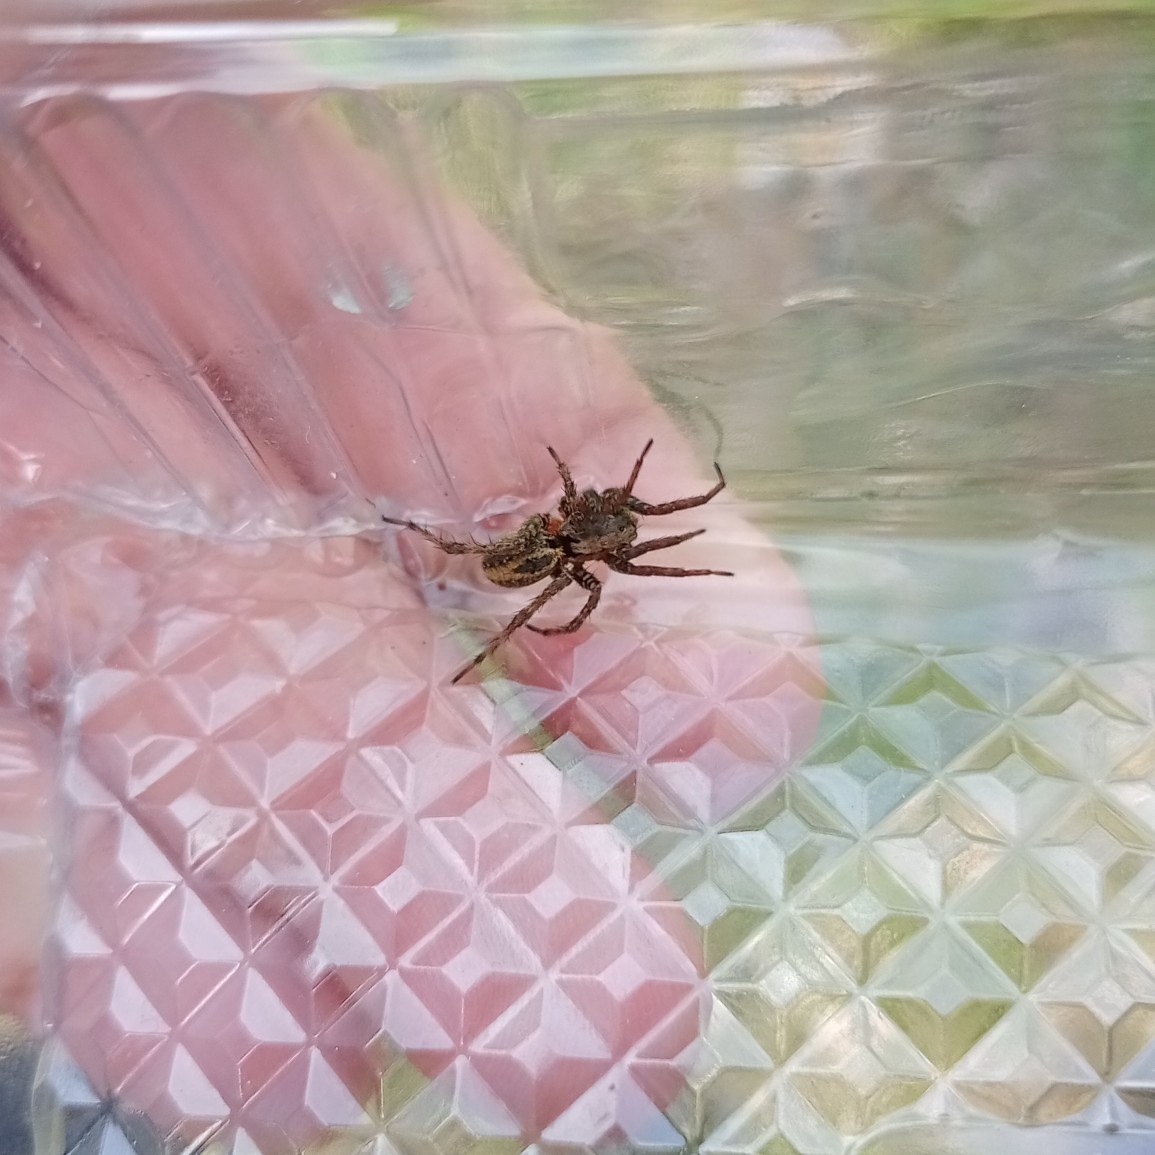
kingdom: Animalia
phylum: Arthropoda
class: Arachnida
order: Araneae
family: Lycosidae
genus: Alopecosa
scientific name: Alopecosa albofasciata
